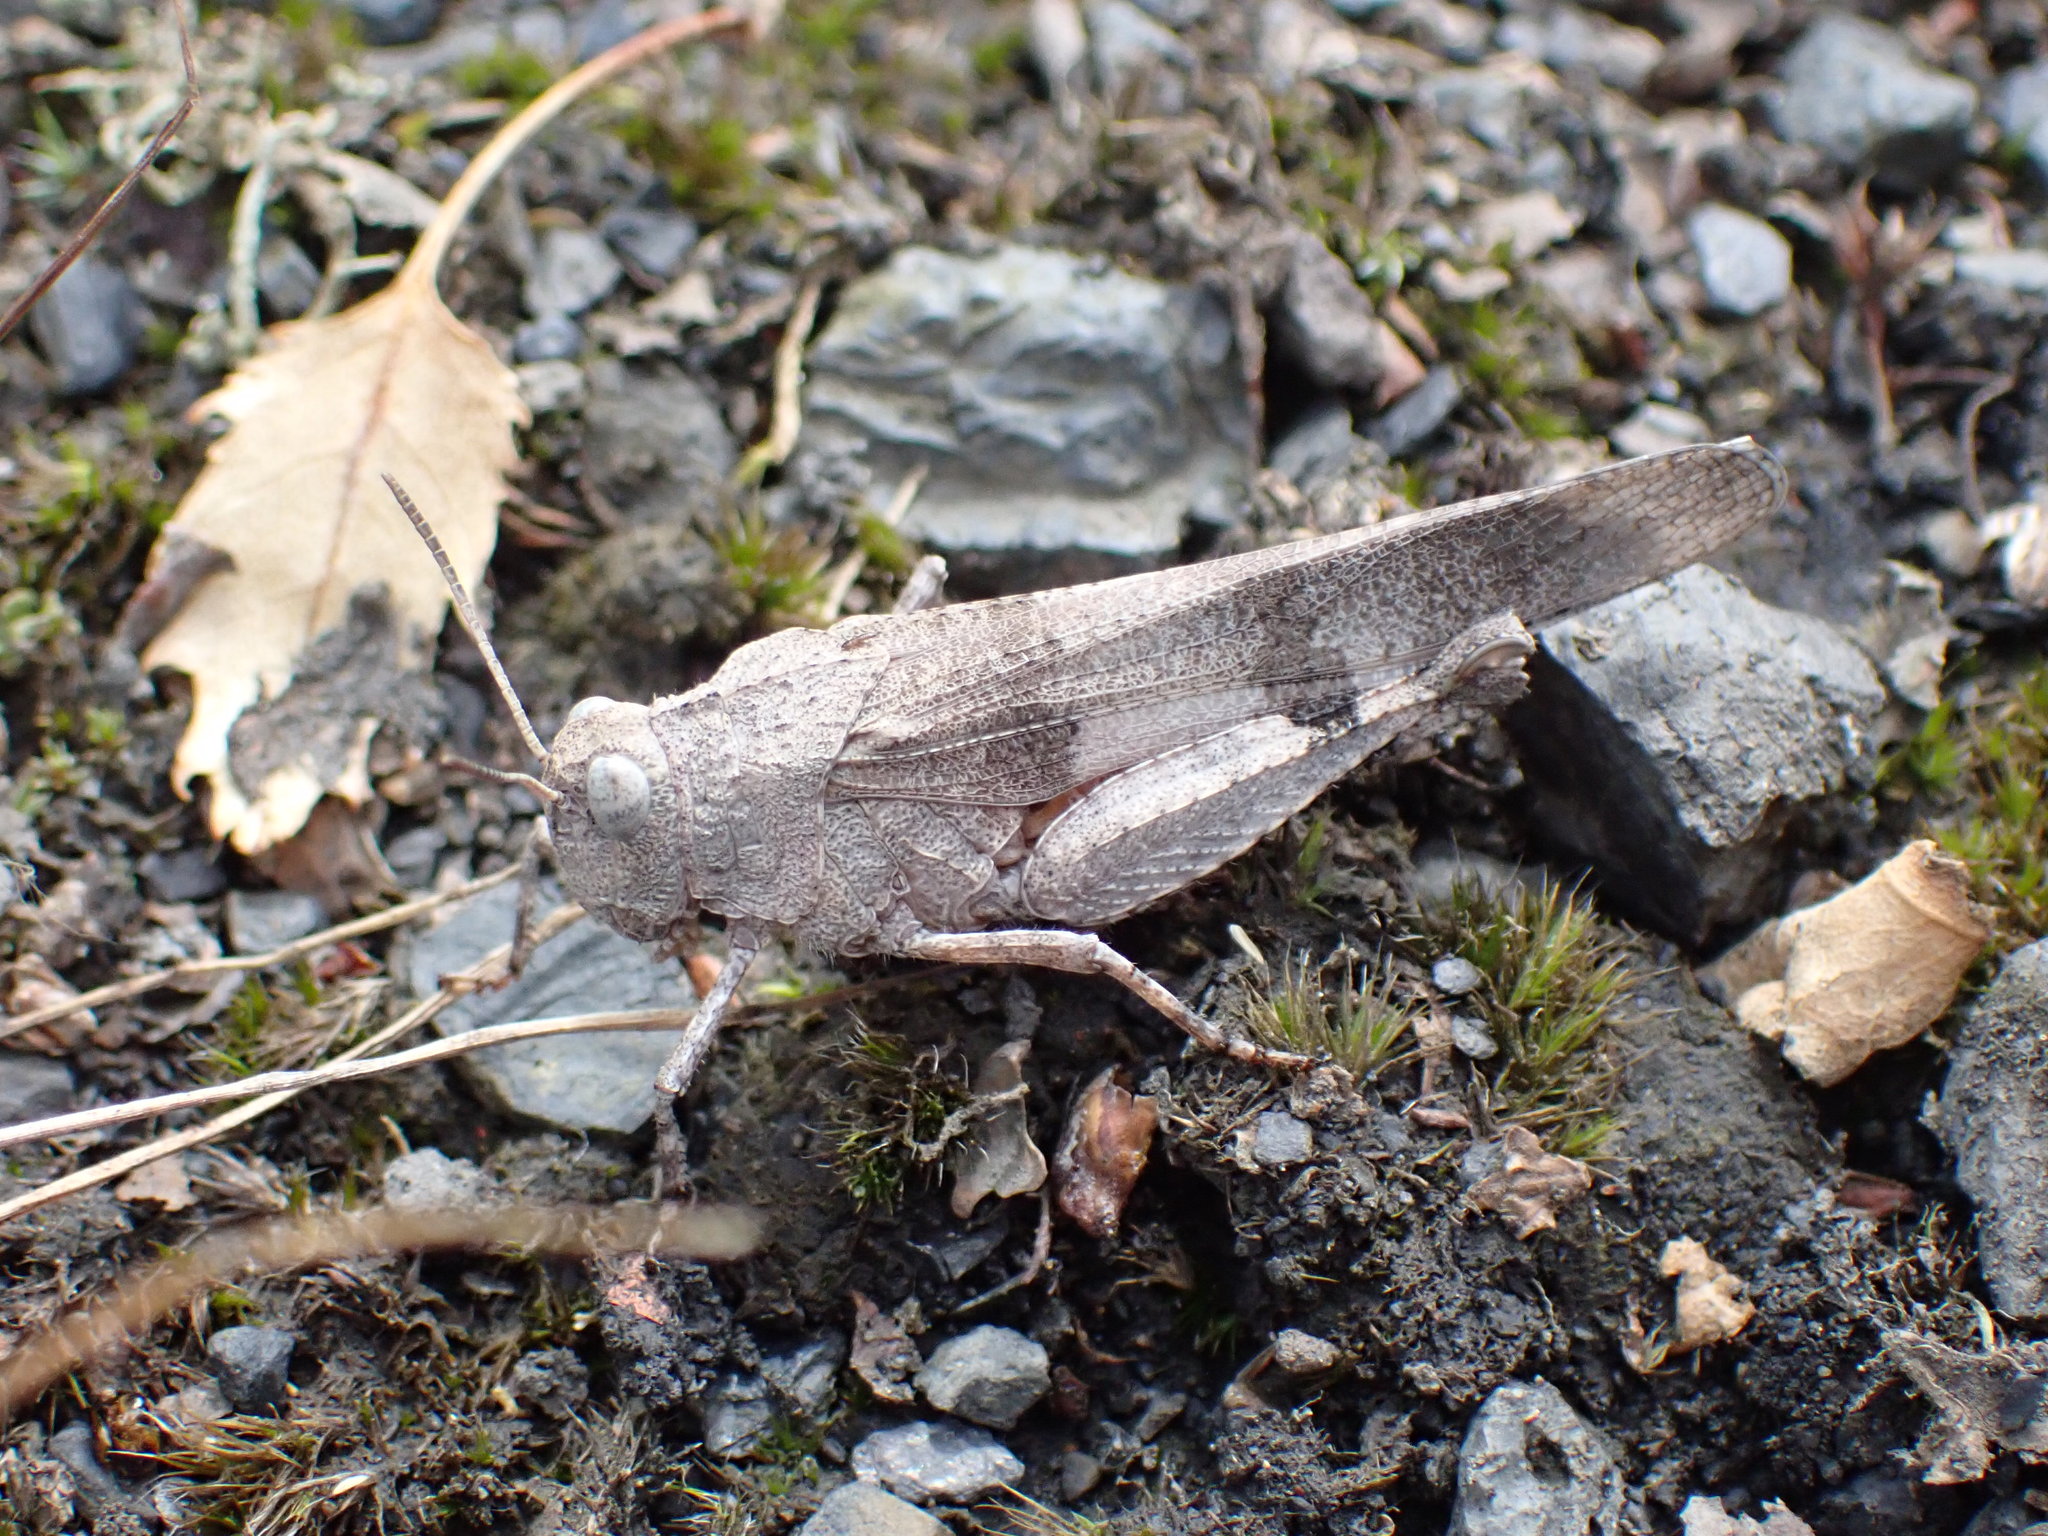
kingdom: Animalia
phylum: Arthropoda
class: Insecta
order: Orthoptera
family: Acrididae
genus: Oedipoda
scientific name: Oedipoda caerulescens
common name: Blue-winged grasshopper
